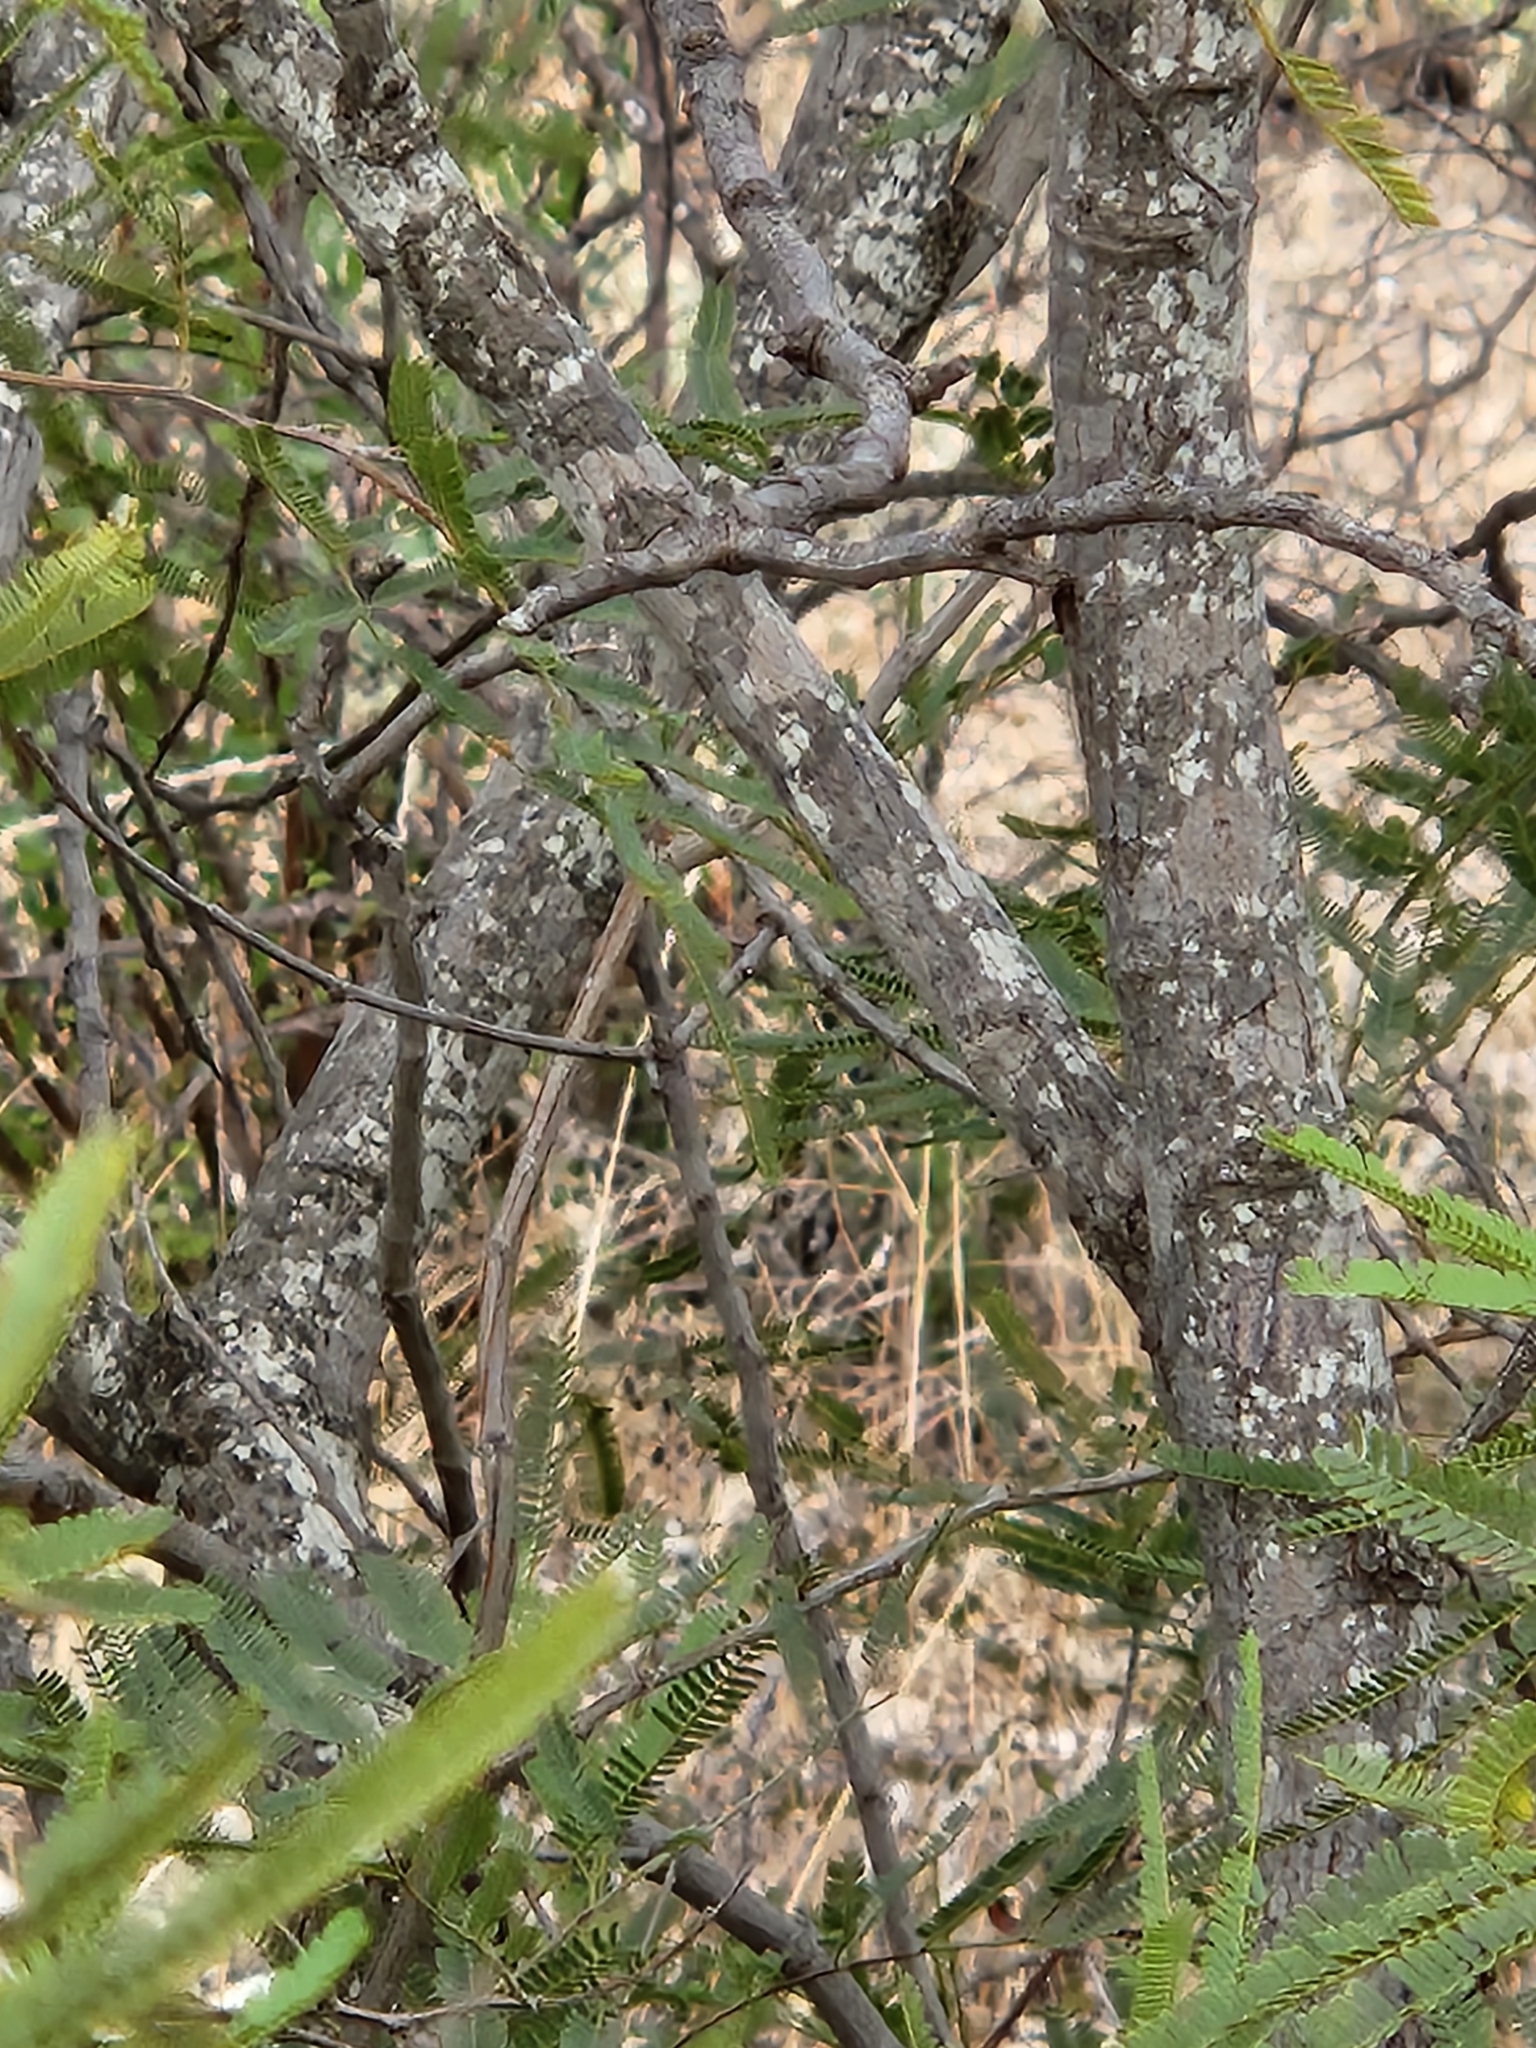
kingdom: Plantae
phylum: Tracheophyta
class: Magnoliopsida
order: Fabales
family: Fabaceae
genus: Senegalia
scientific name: Senegalia berlandieri
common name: Berlandier acacia
